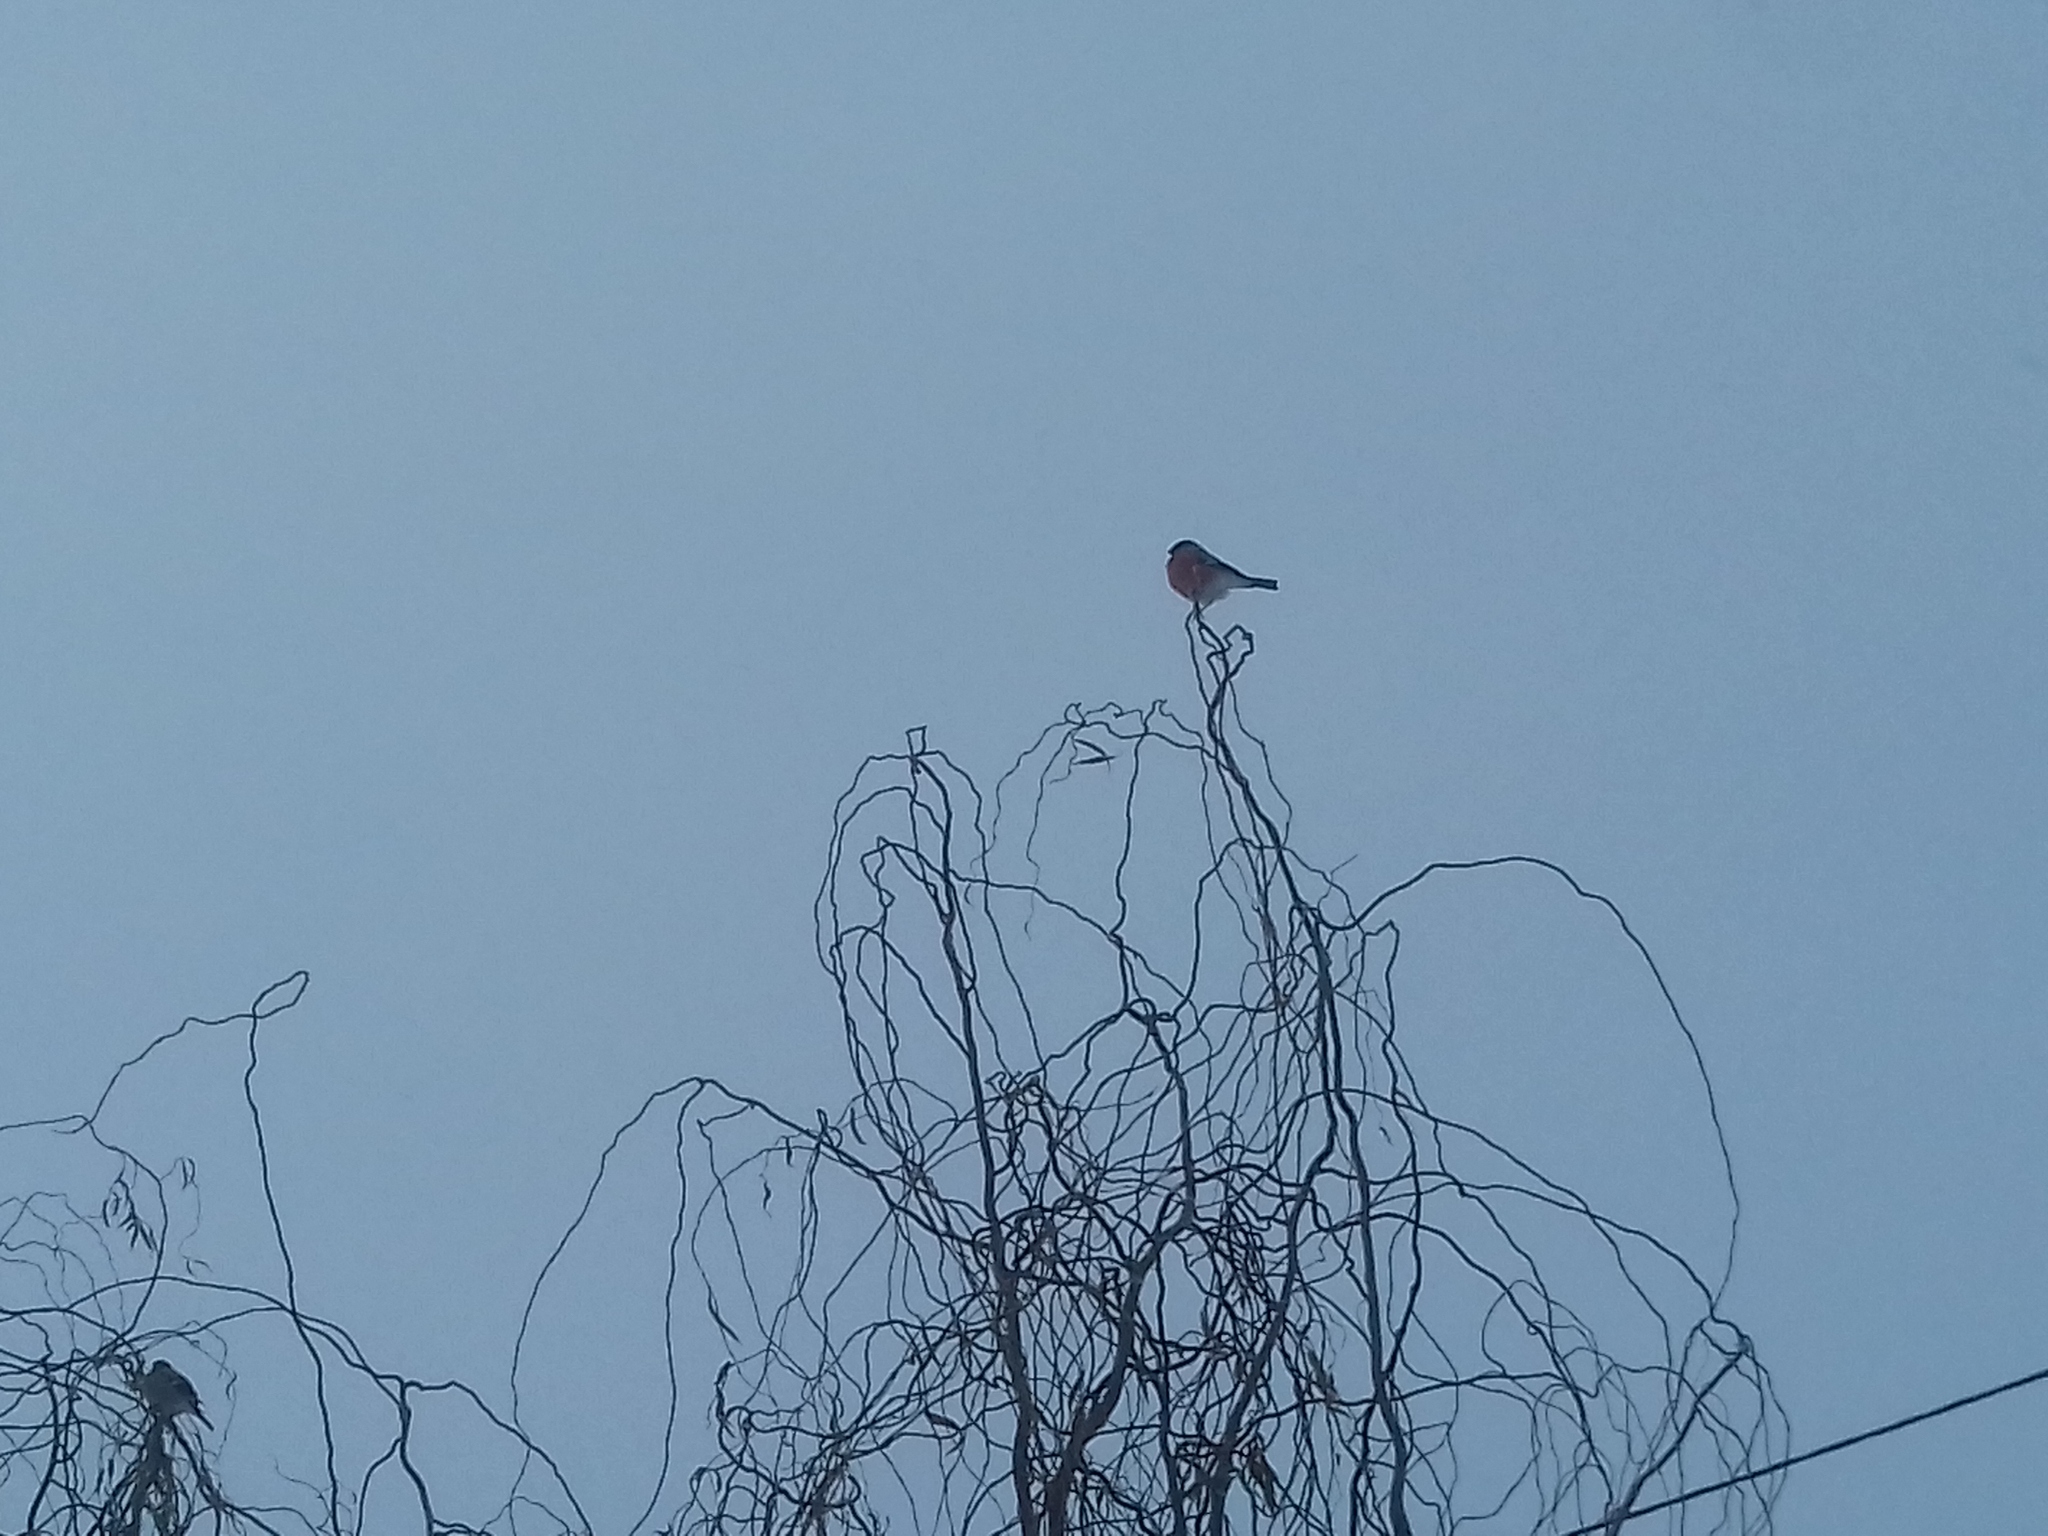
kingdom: Animalia
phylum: Chordata
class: Aves
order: Passeriformes
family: Fringillidae
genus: Pyrrhula
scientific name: Pyrrhula pyrrhula
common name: Eurasian bullfinch
